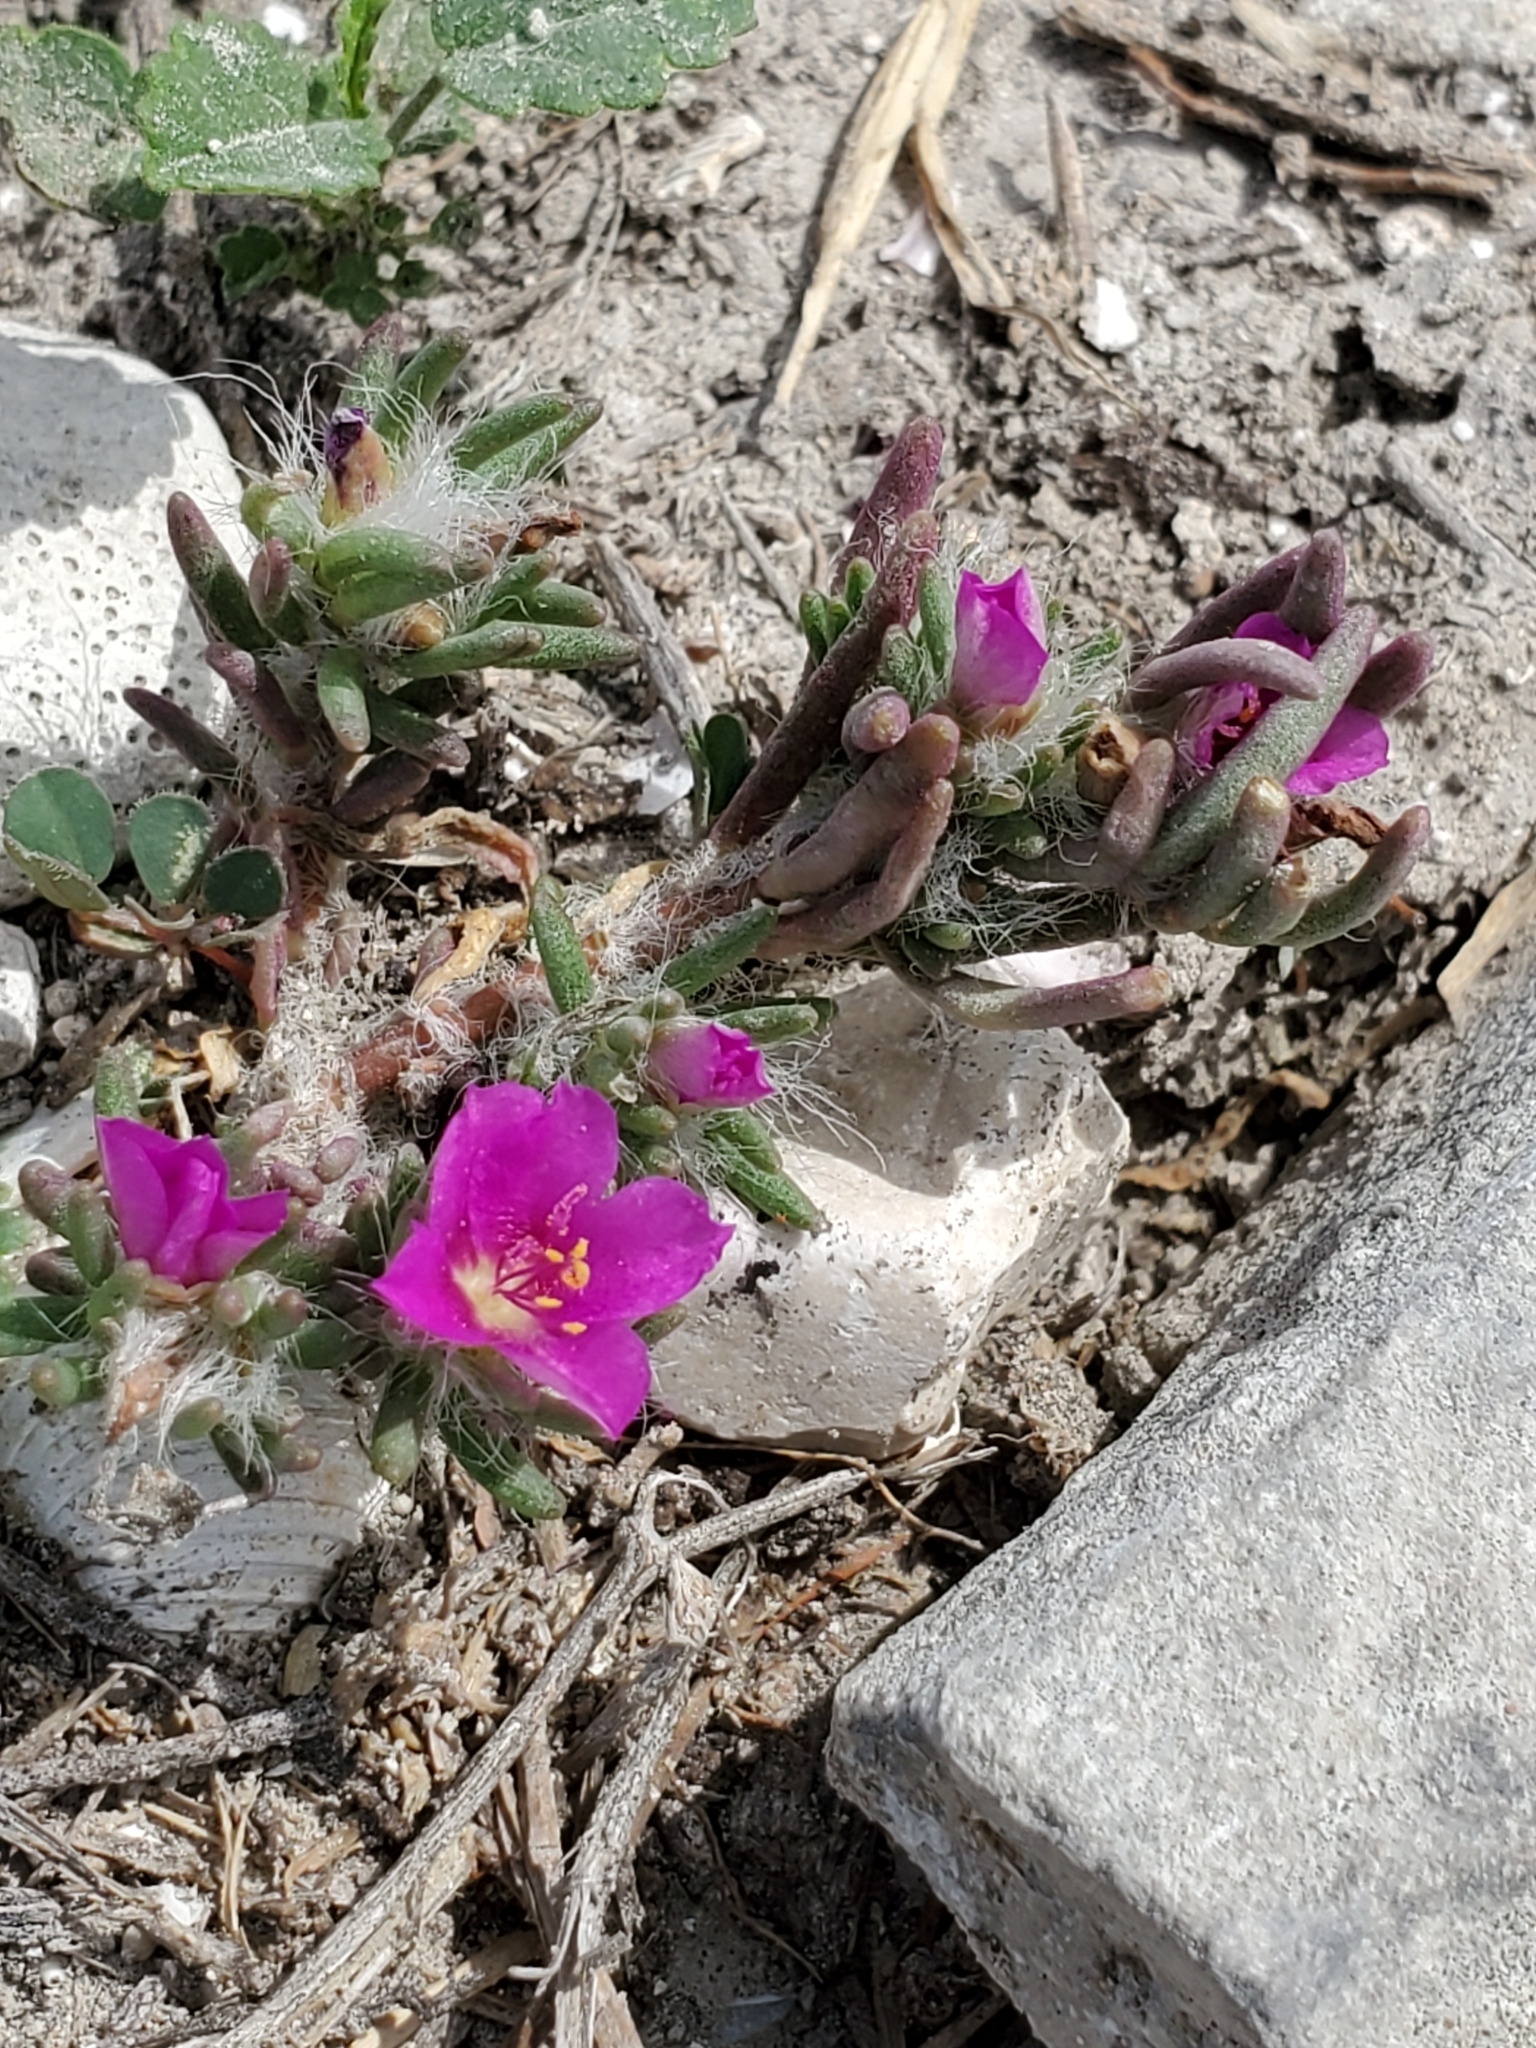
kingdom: Plantae
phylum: Tracheophyta
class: Magnoliopsida
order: Caryophyllales
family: Portulacaceae
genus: Portulaca
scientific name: Portulaca pilosa
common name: Kiss me quick
